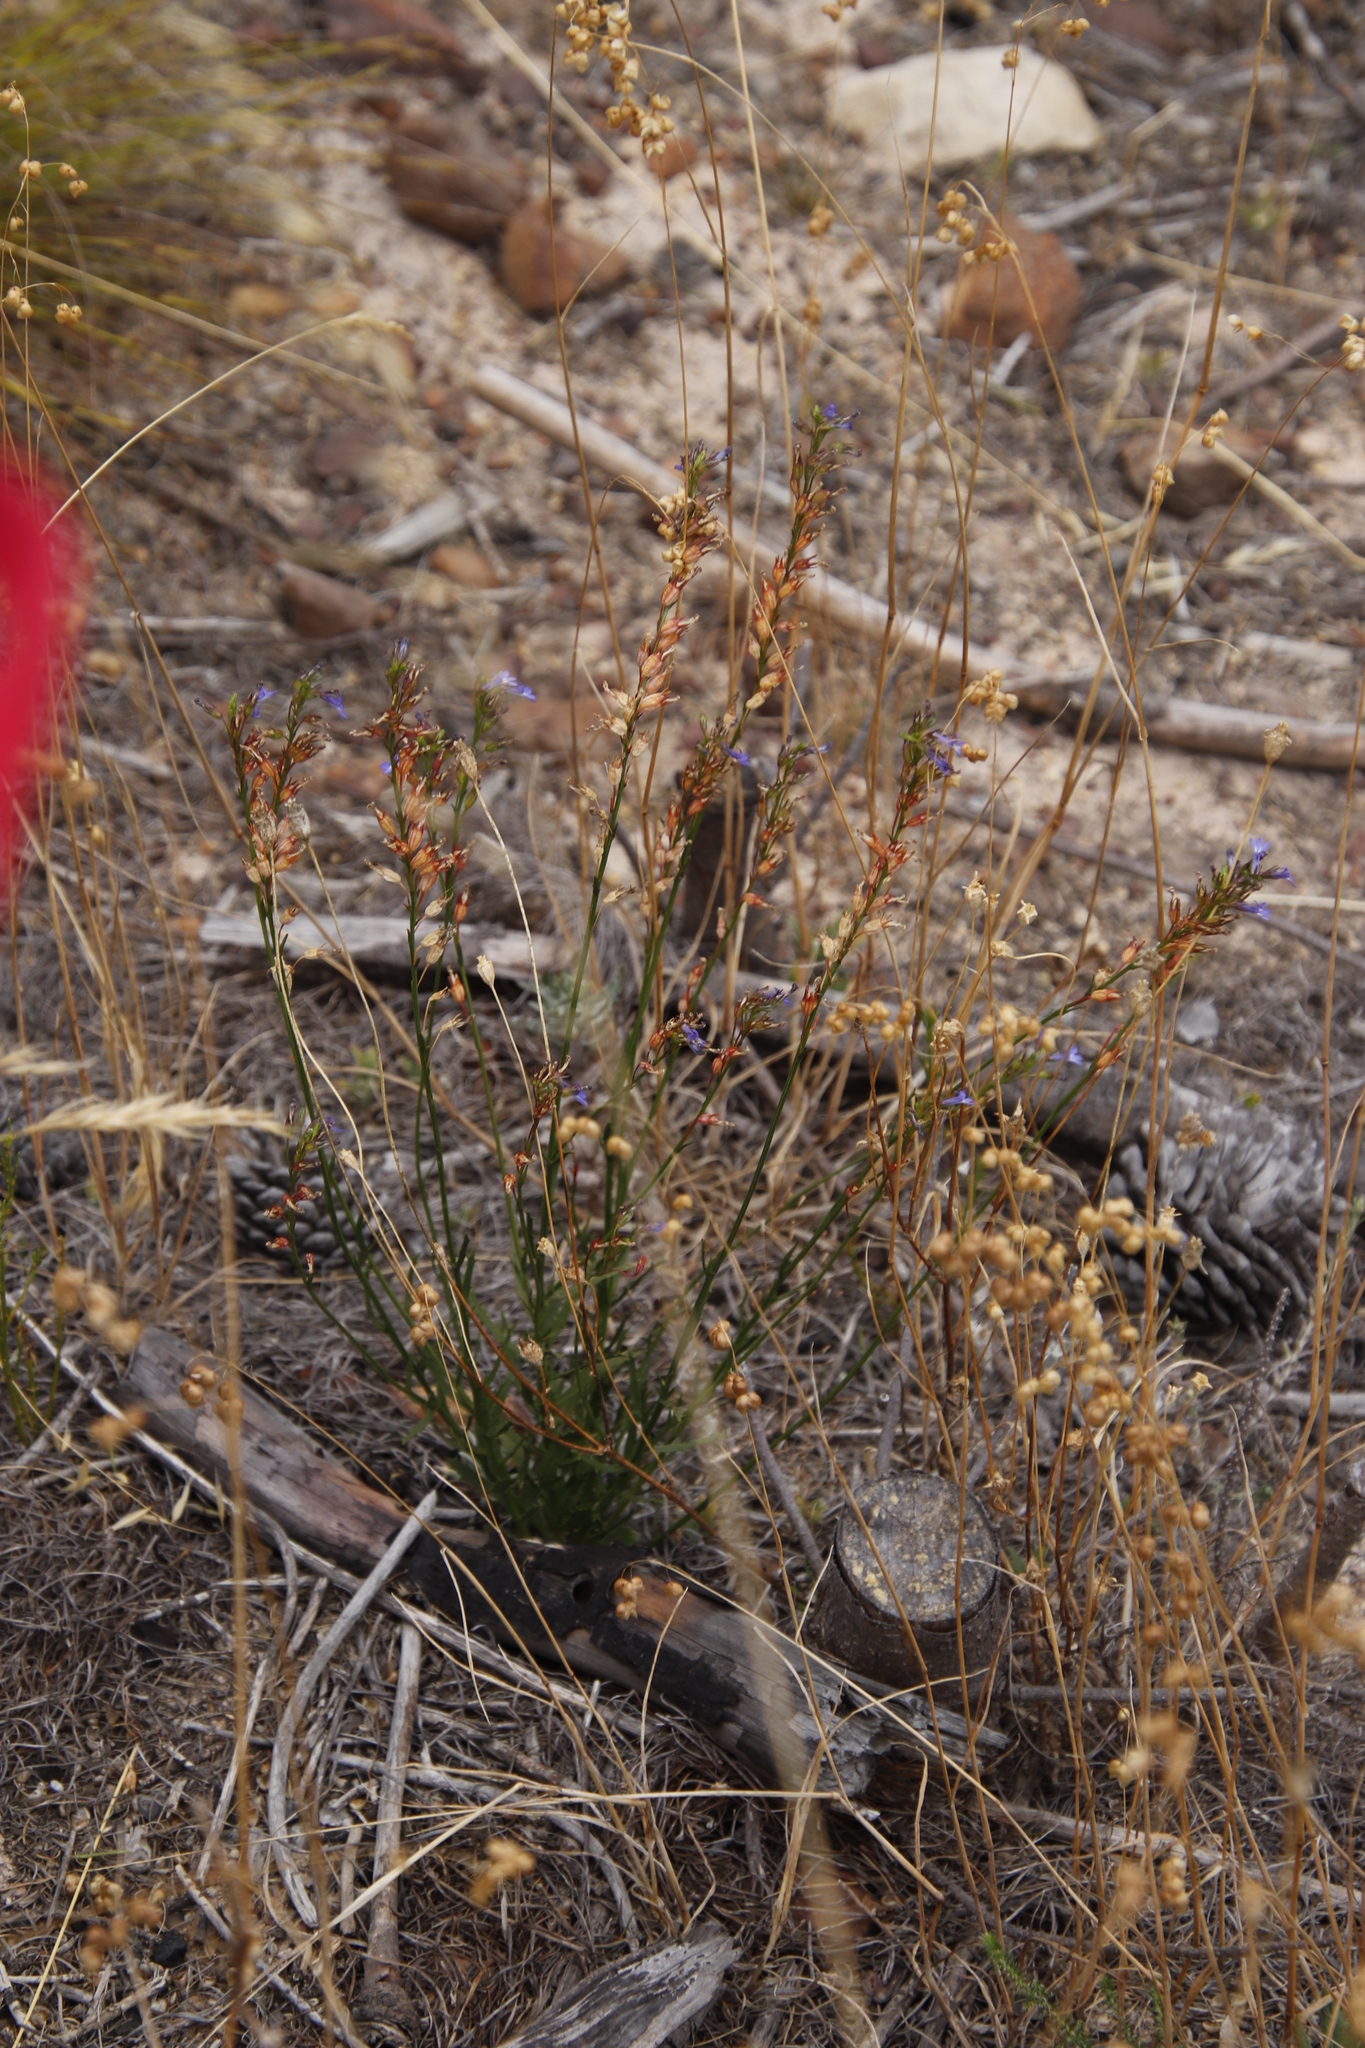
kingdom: Plantae
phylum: Tracheophyta
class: Magnoliopsida
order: Asterales
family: Campanulaceae
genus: Lobelia
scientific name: Lobelia comosa
